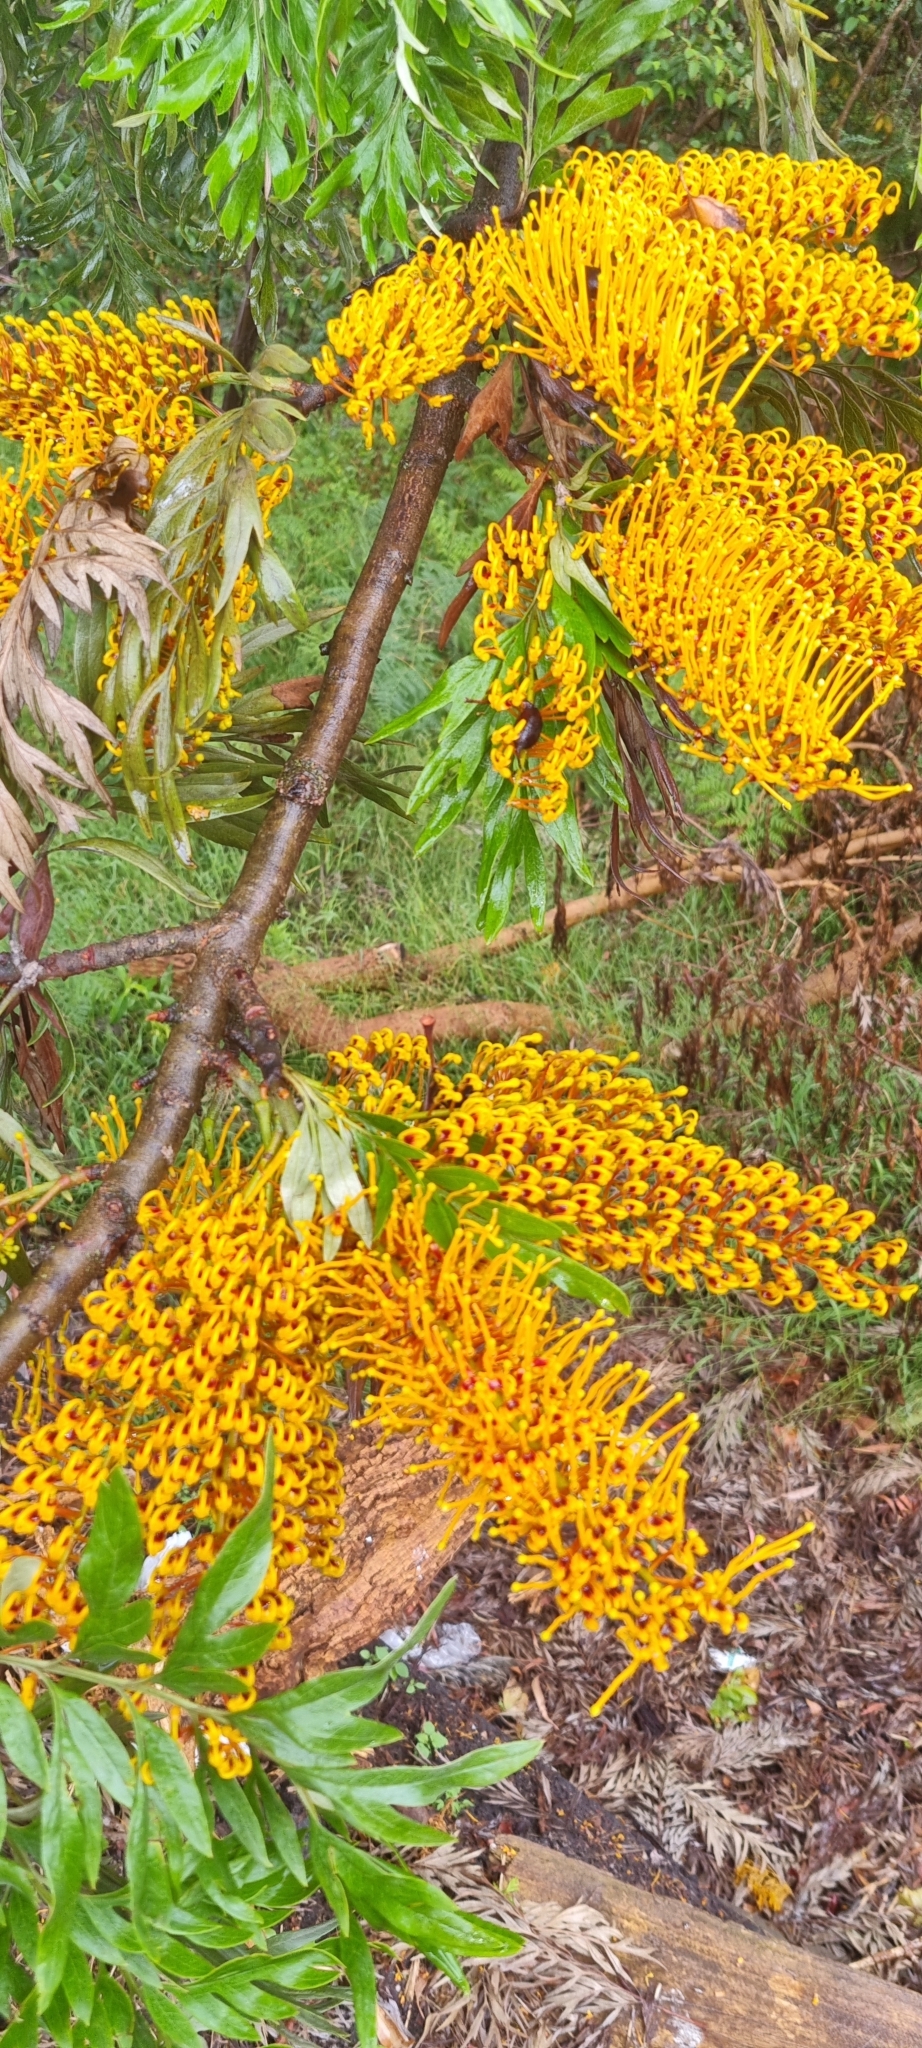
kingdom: Plantae
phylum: Tracheophyta
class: Magnoliopsida
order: Proteales
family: Proteaceae
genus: Grevillea
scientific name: Grevillea robusta
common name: Silkoak
